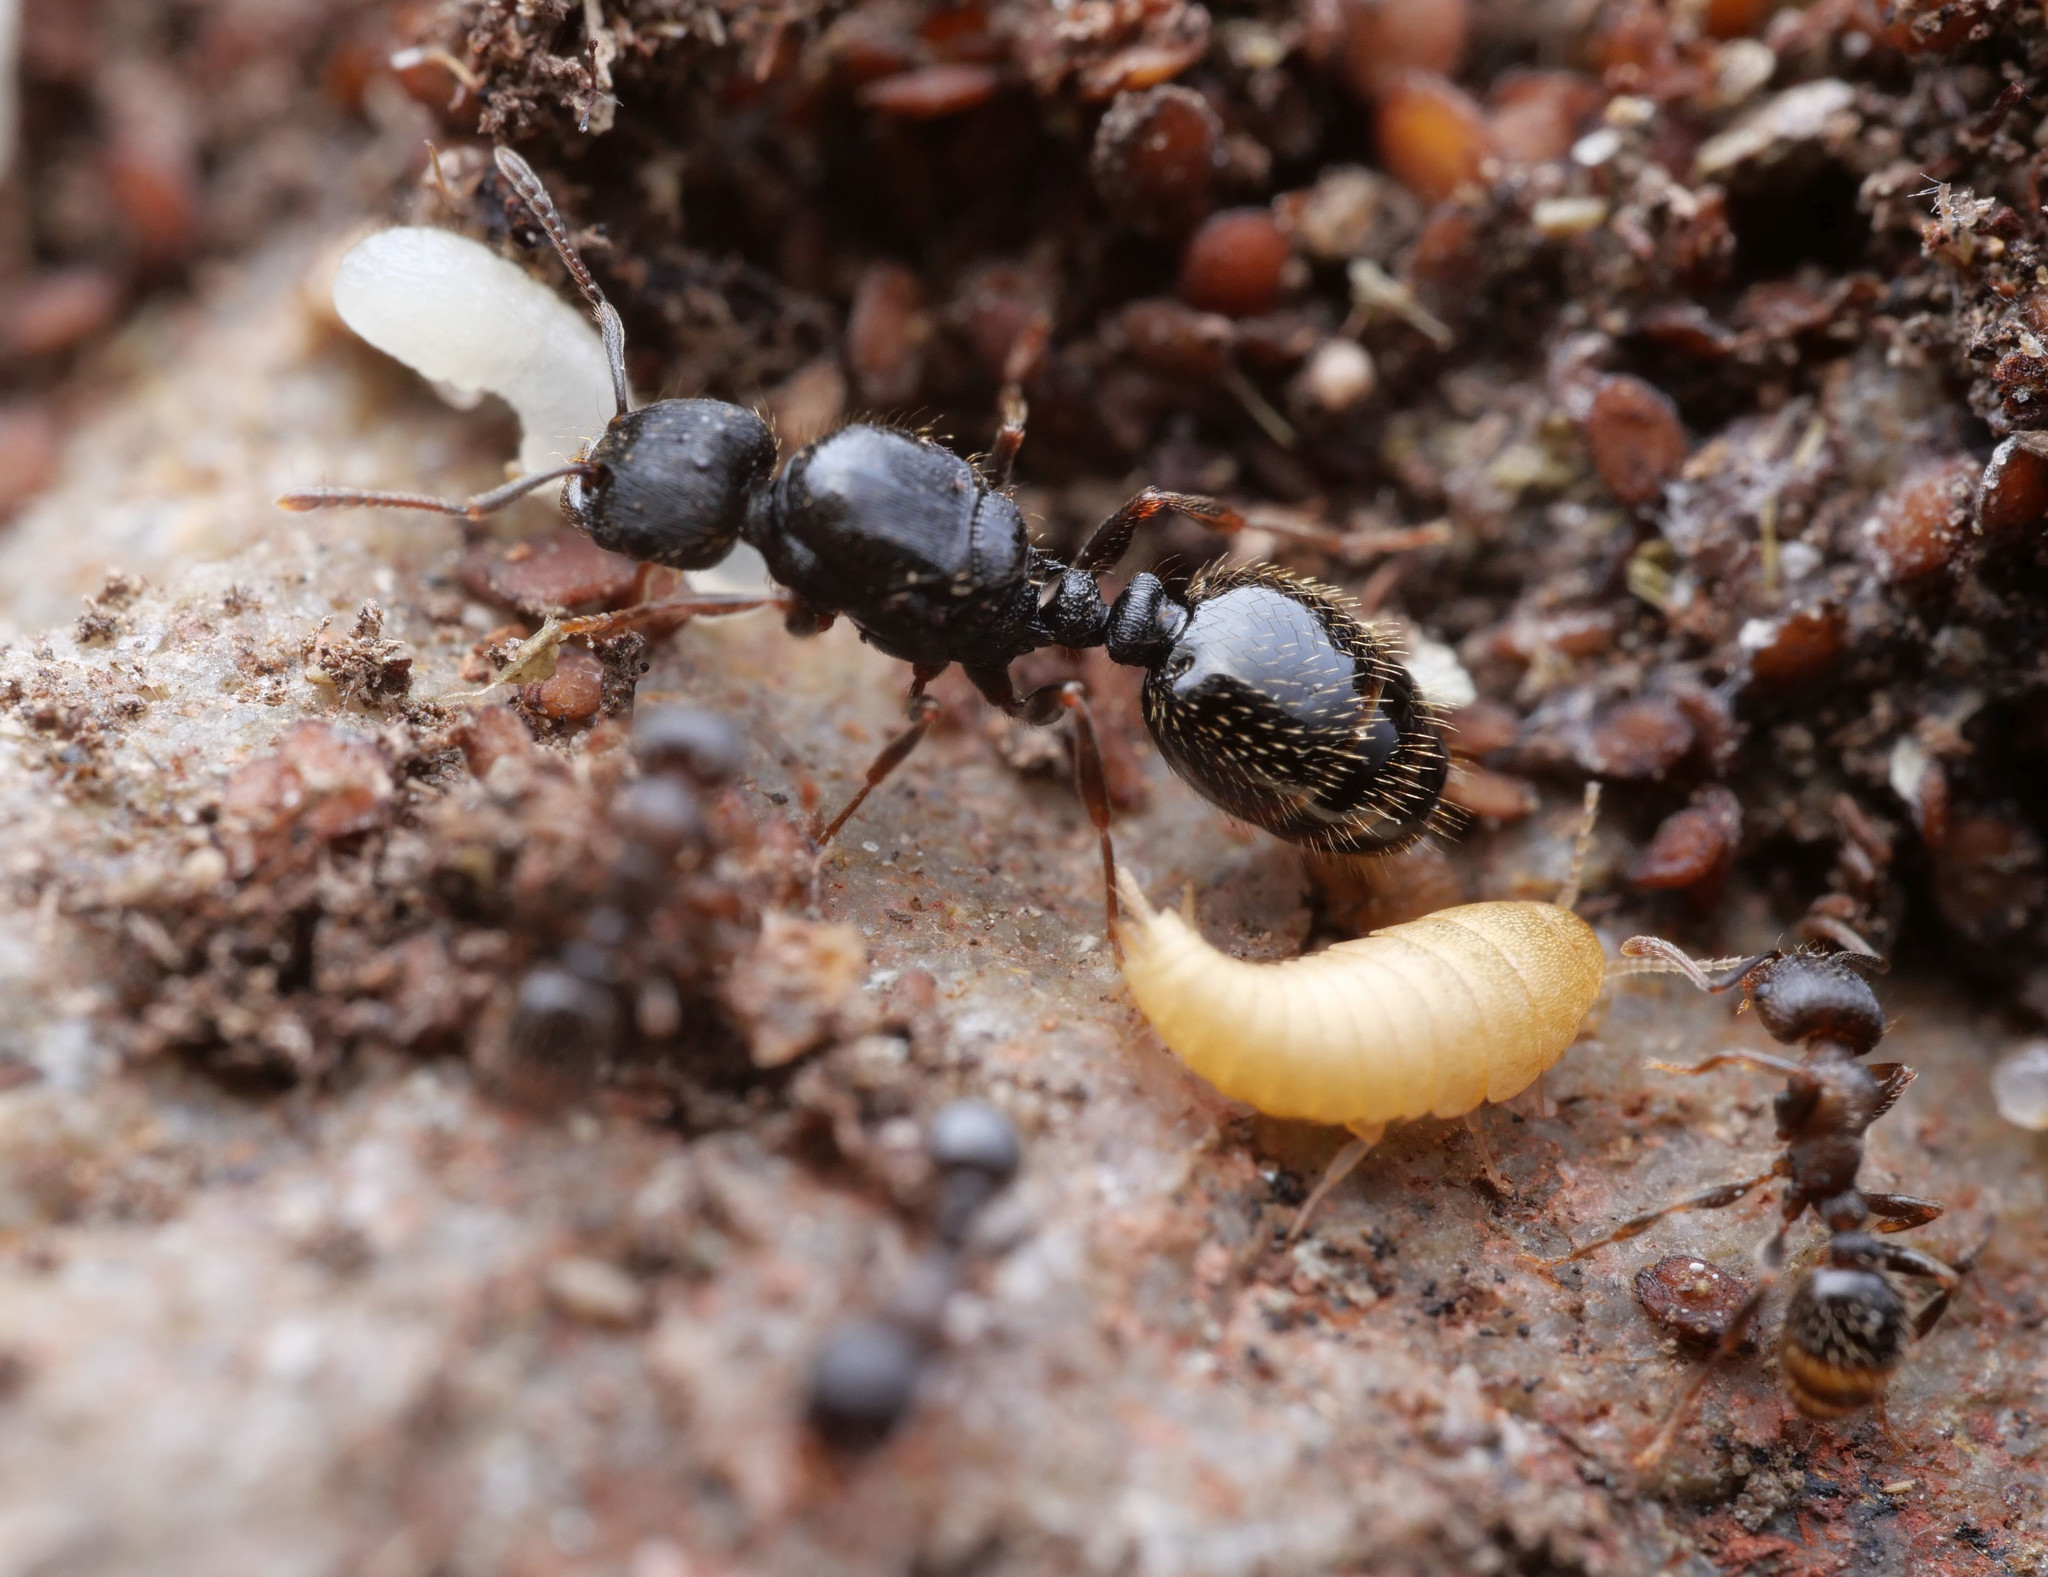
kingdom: Animalia
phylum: Arthropoda
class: Insecta
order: Zygentoma
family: Nicoletiidae
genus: Atelura
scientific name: Atelura formicaria
